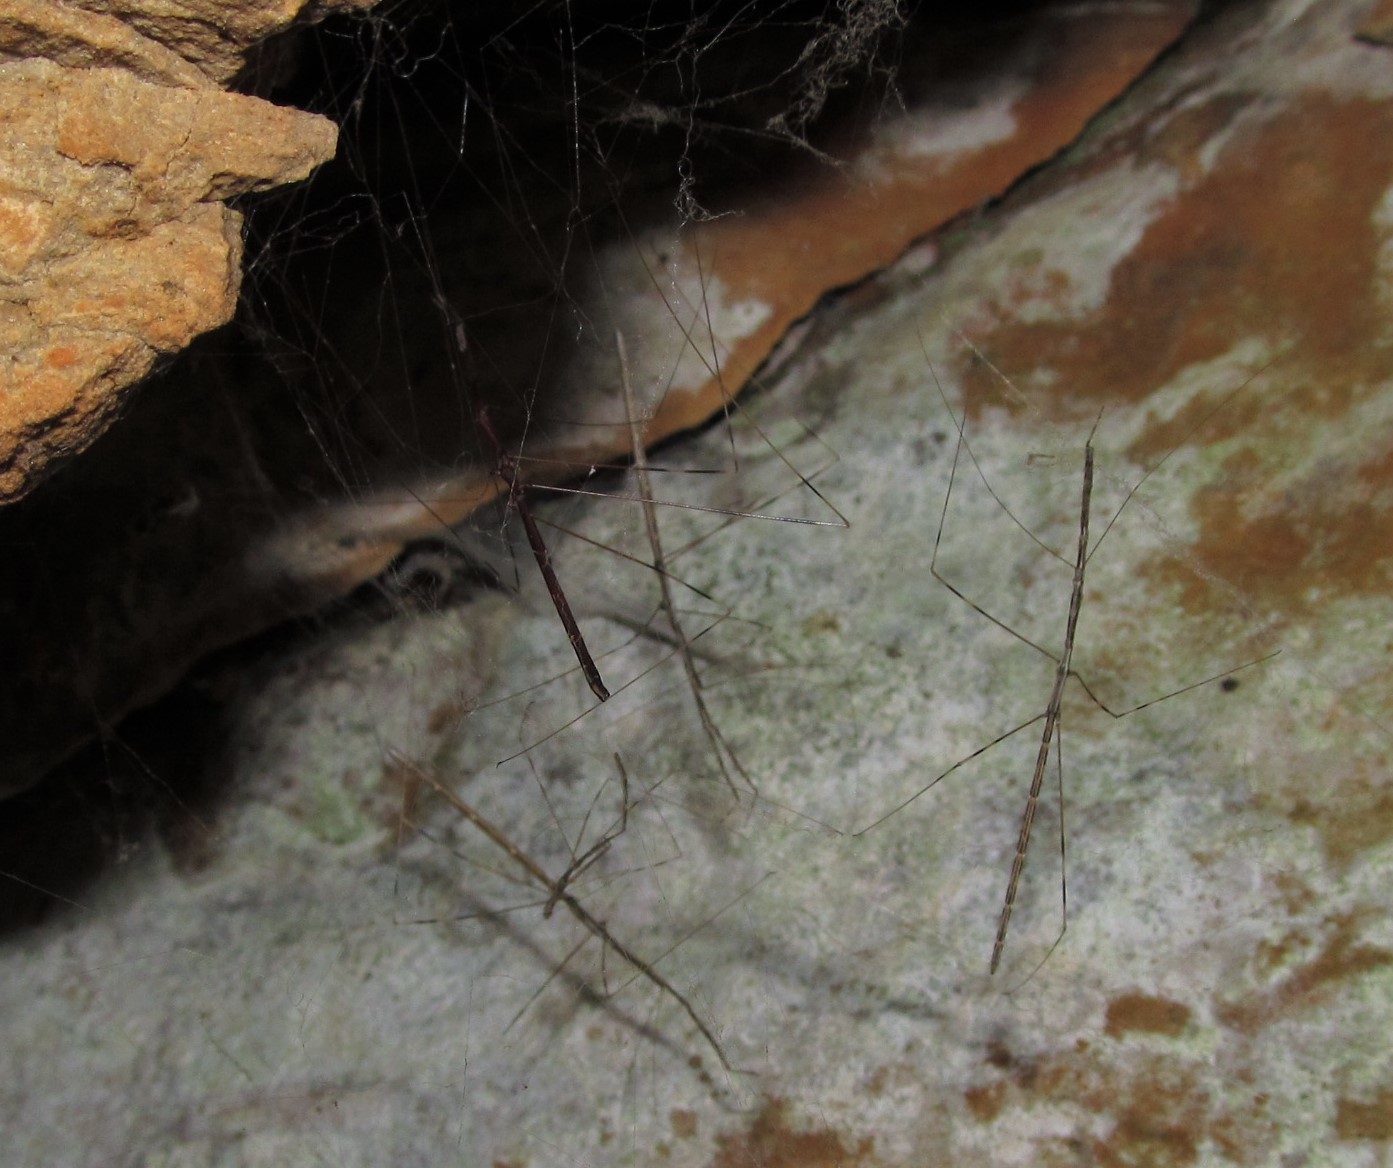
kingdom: Animalia
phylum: Arthropoda
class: Insecta
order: Hemiptera
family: Reduviidae
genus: Emesaya
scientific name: Emesaya brevipennis
